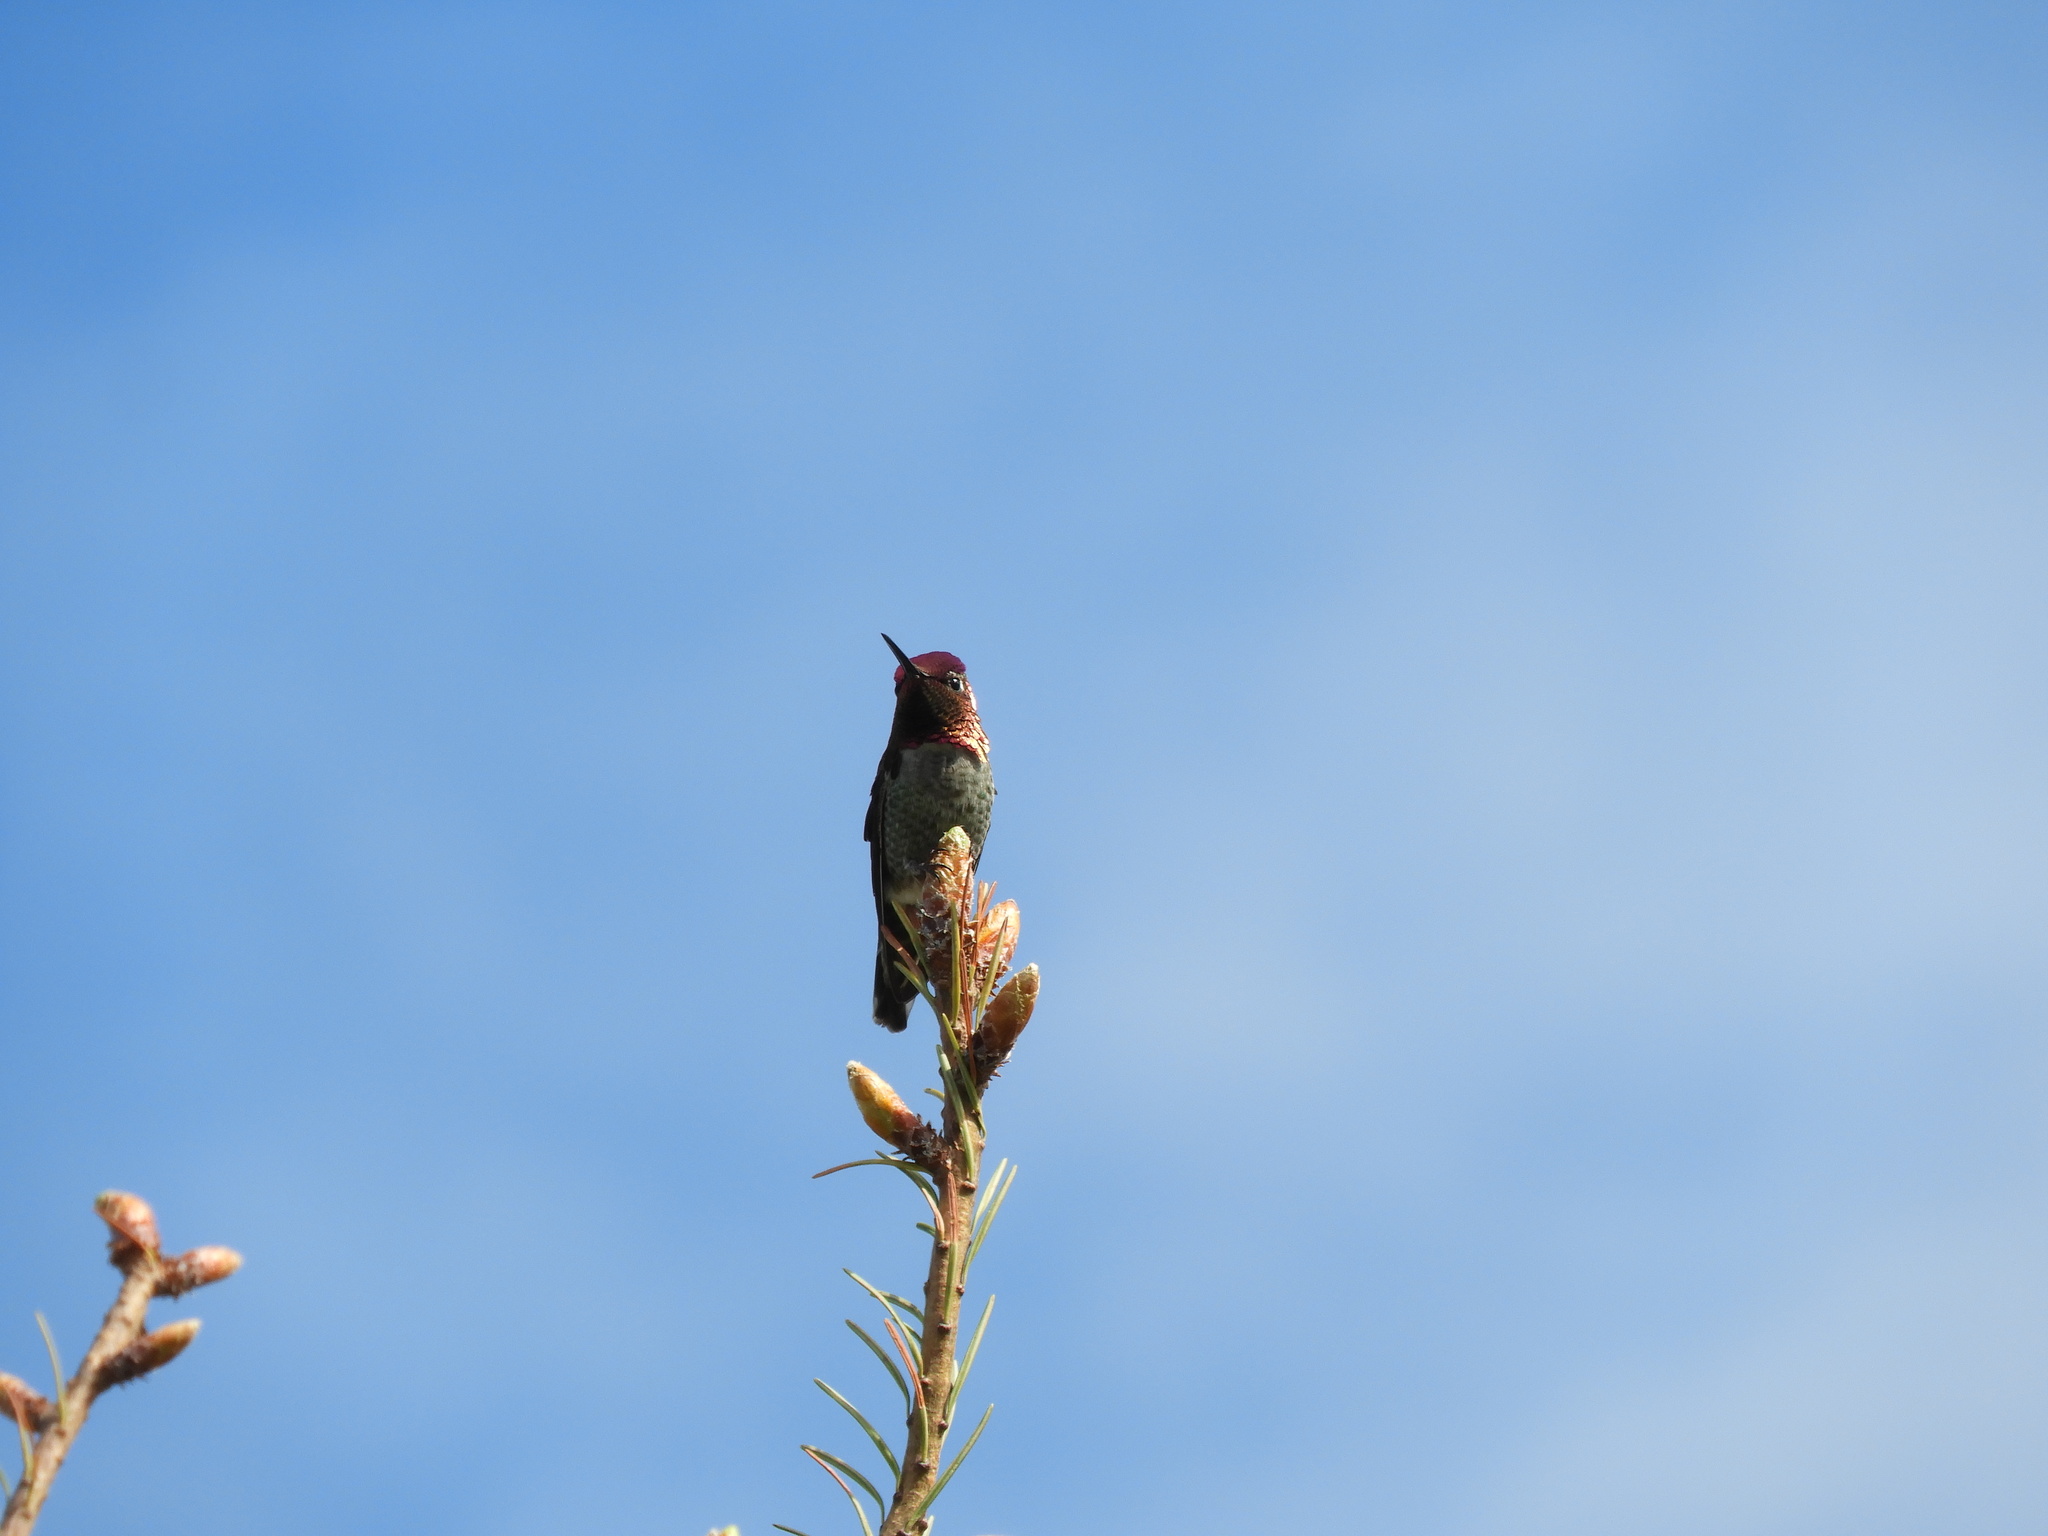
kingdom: Animalia
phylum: Chordata
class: Aves
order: Apodiformes
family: Trochilidae
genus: Calypte
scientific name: Calypte anna
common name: Anna's hummingbird
